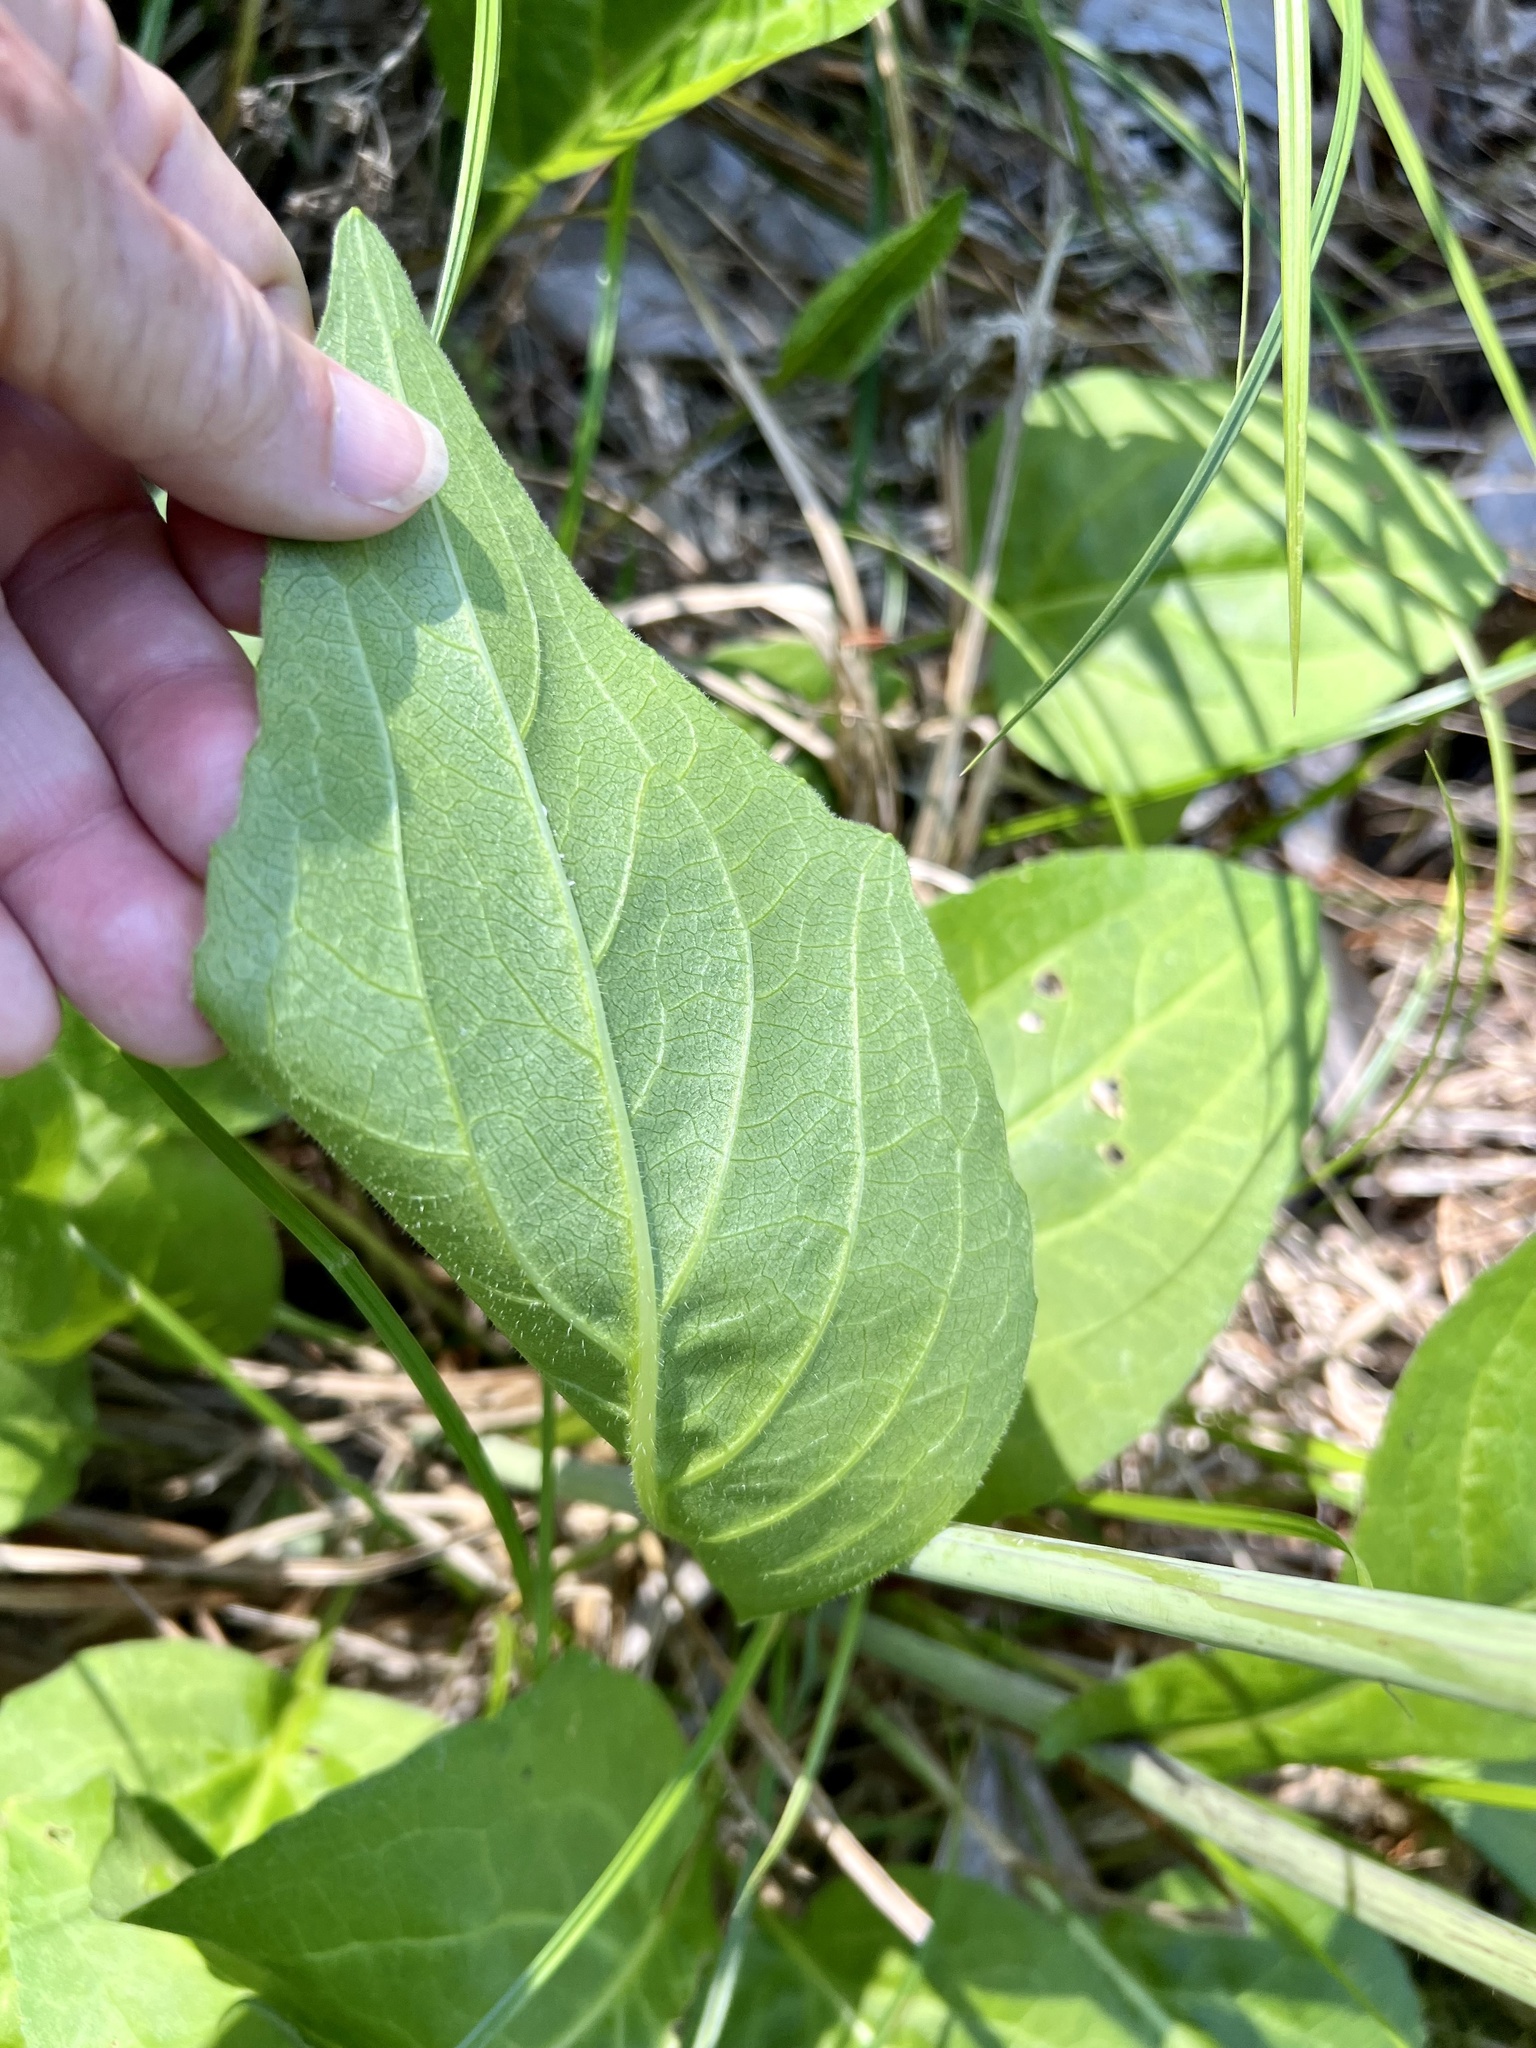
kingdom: Plantae
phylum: Tracheophyta
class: Magnoliopsida
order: Asterales
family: Asteraceae
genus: Rudbeckia
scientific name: Rudbeckia scabrifolia
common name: Rough-leaf coneflower
